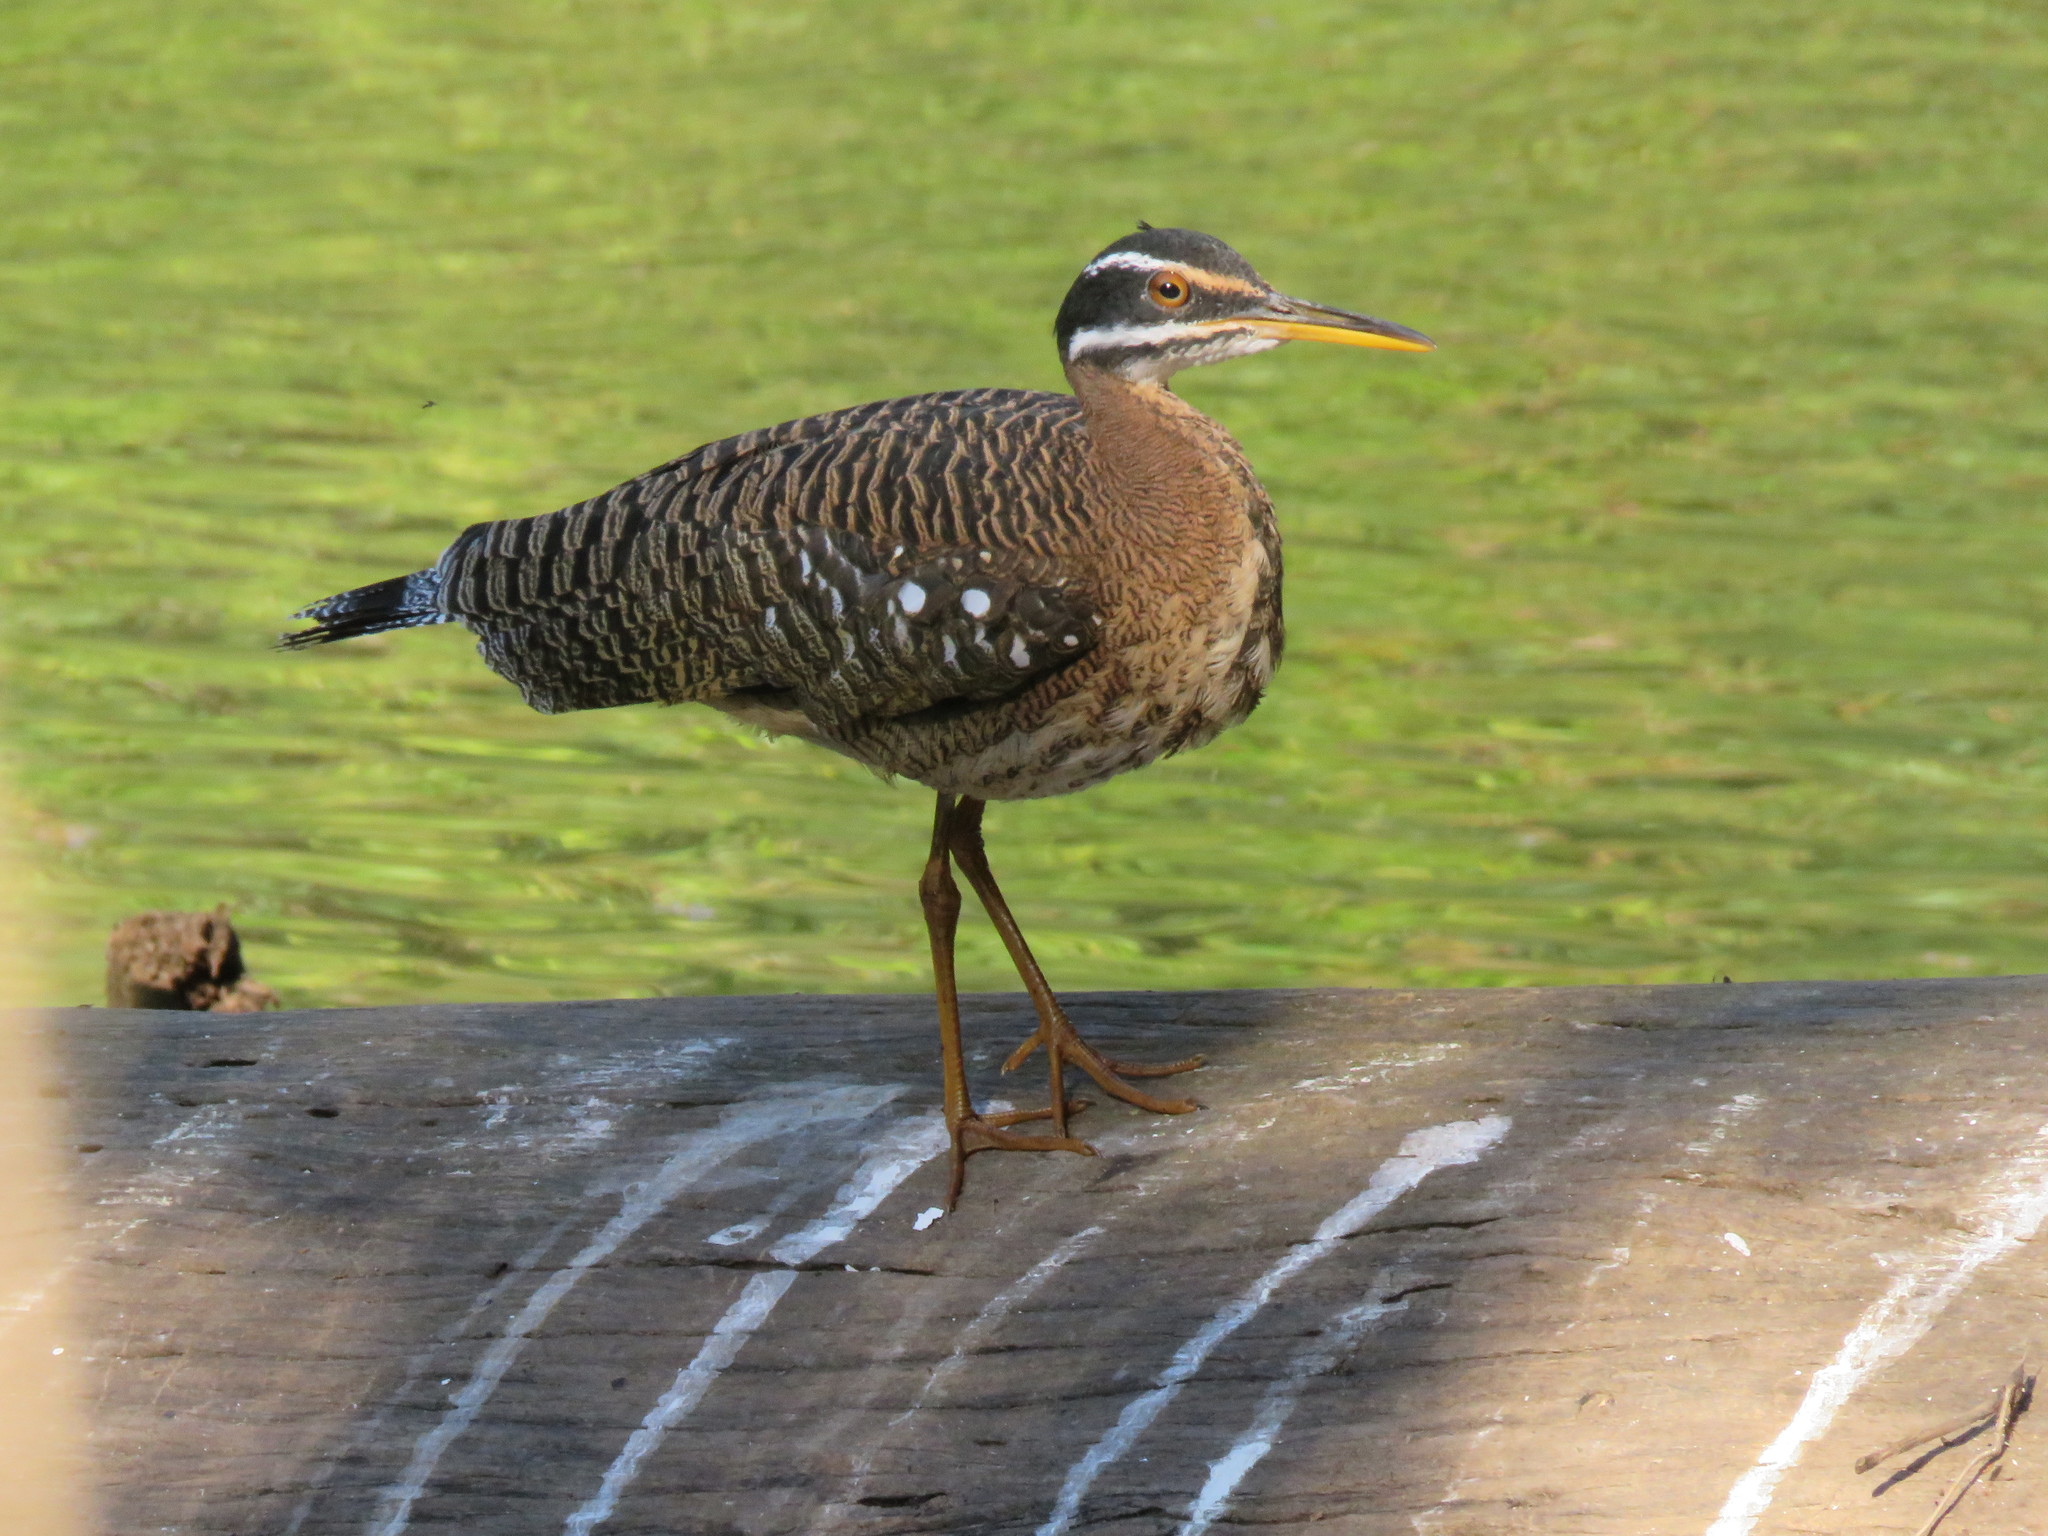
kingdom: Animalia
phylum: Chordata
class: Aves
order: Eurypygiformes
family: Eurypygidae
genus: Eurypyga
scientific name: Eurypyga helias
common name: Sunbittern
